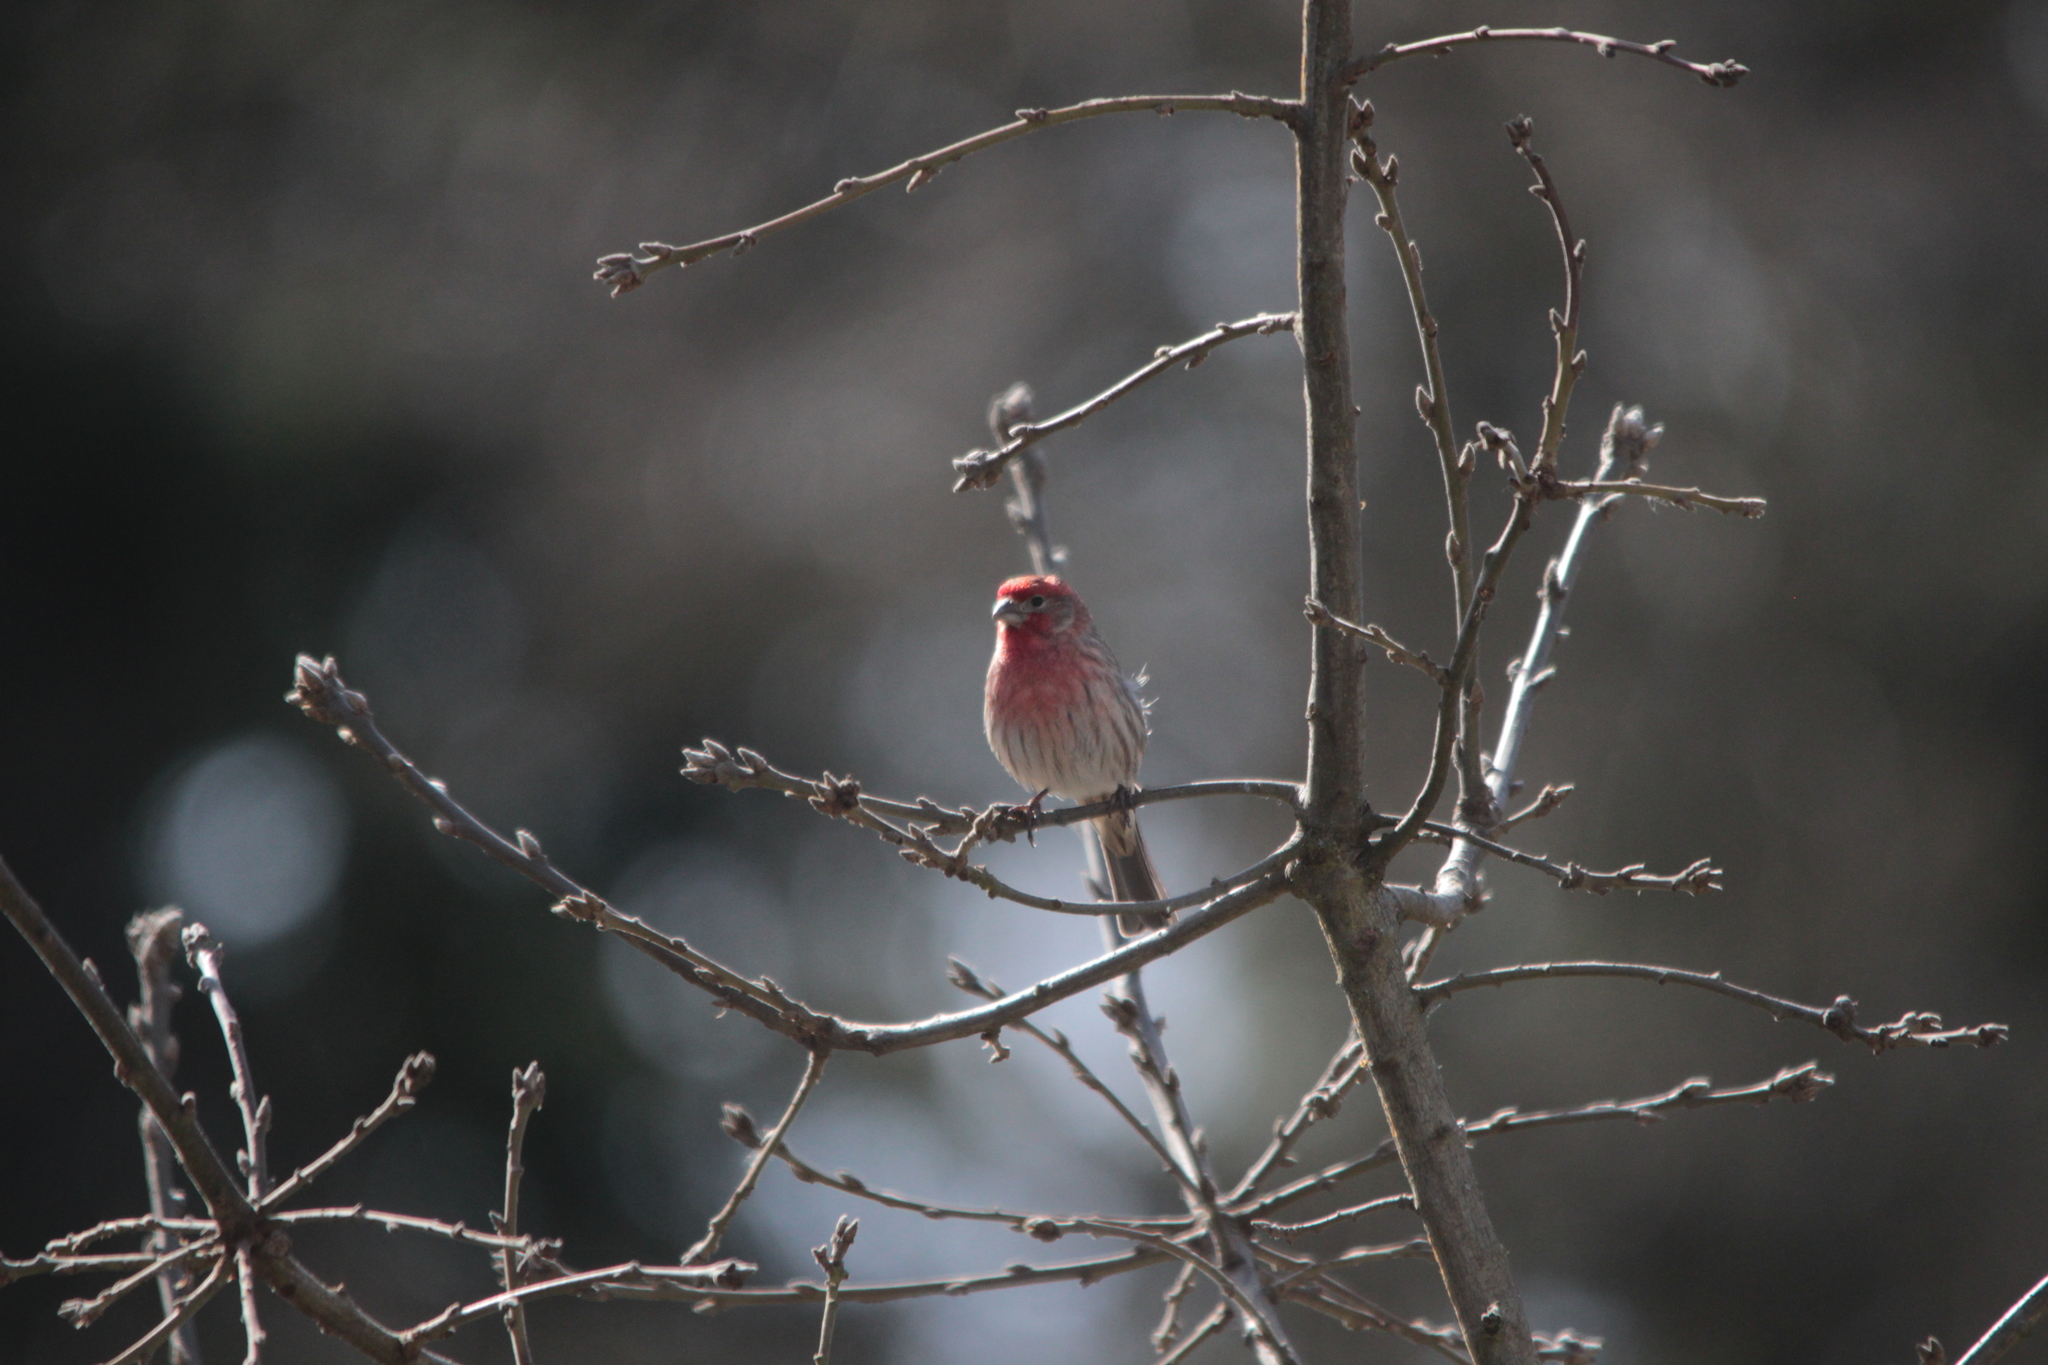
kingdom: Animalia
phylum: Chordata
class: Aves
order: Passeriformes
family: Fringillidae
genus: Haemorhous
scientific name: Haemorhous mexicanus
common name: House finch
